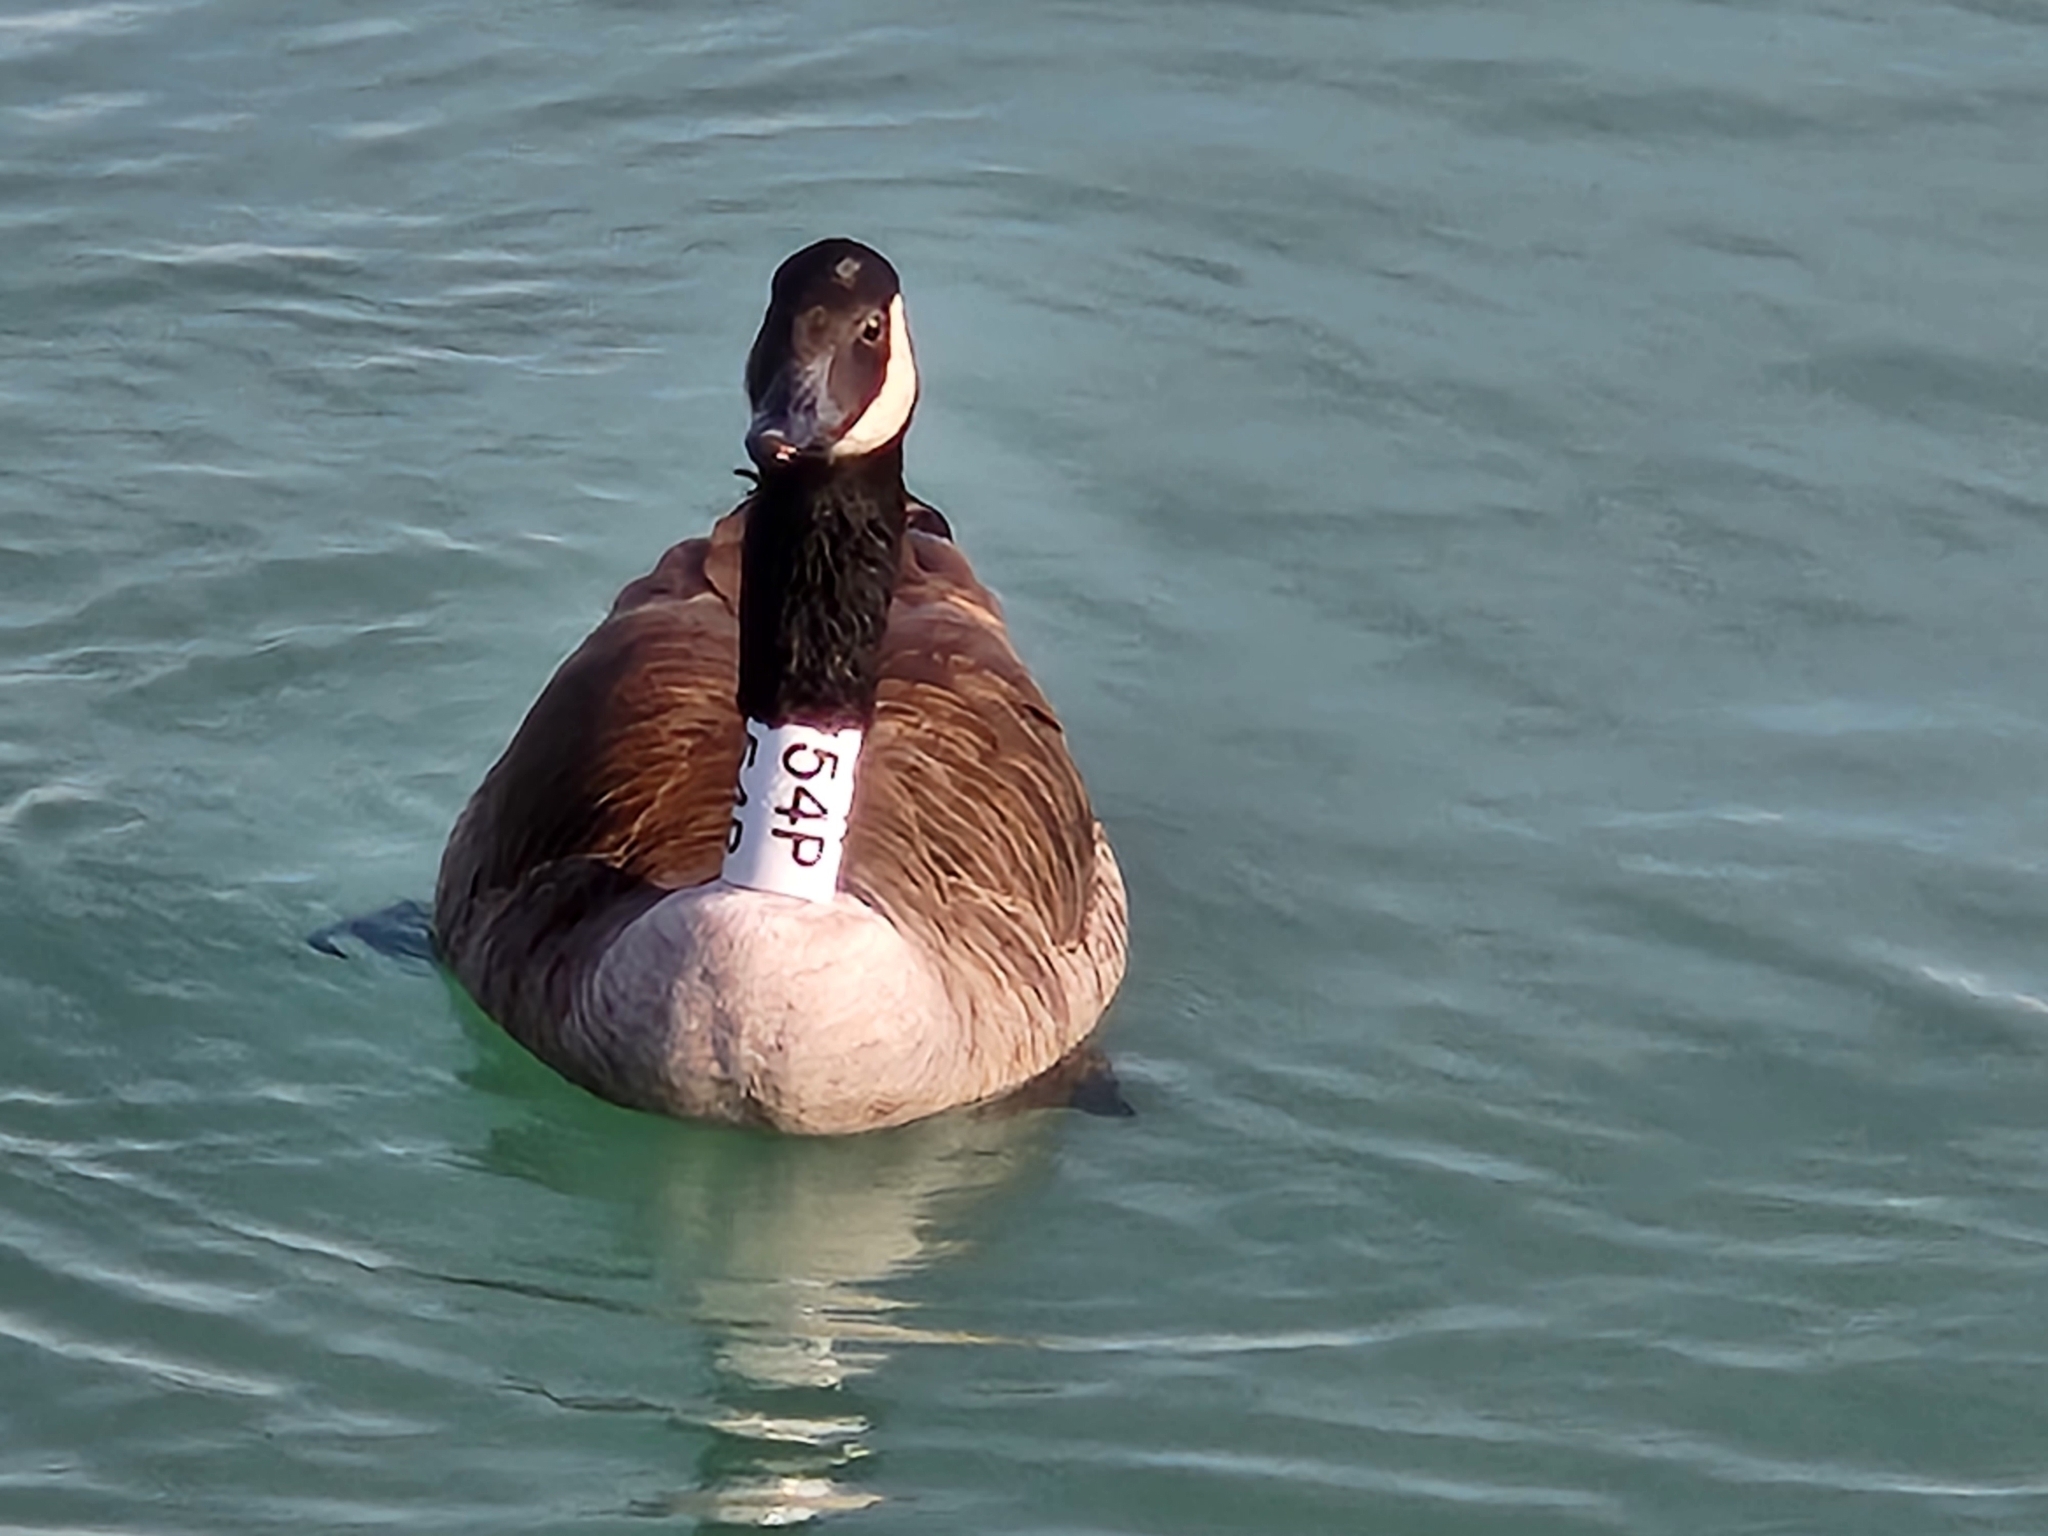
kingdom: Animalia
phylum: Chordata
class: Aves
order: Anseriformes
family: Anatidae
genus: Branta
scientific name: Branta canadensis
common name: Canada goose
